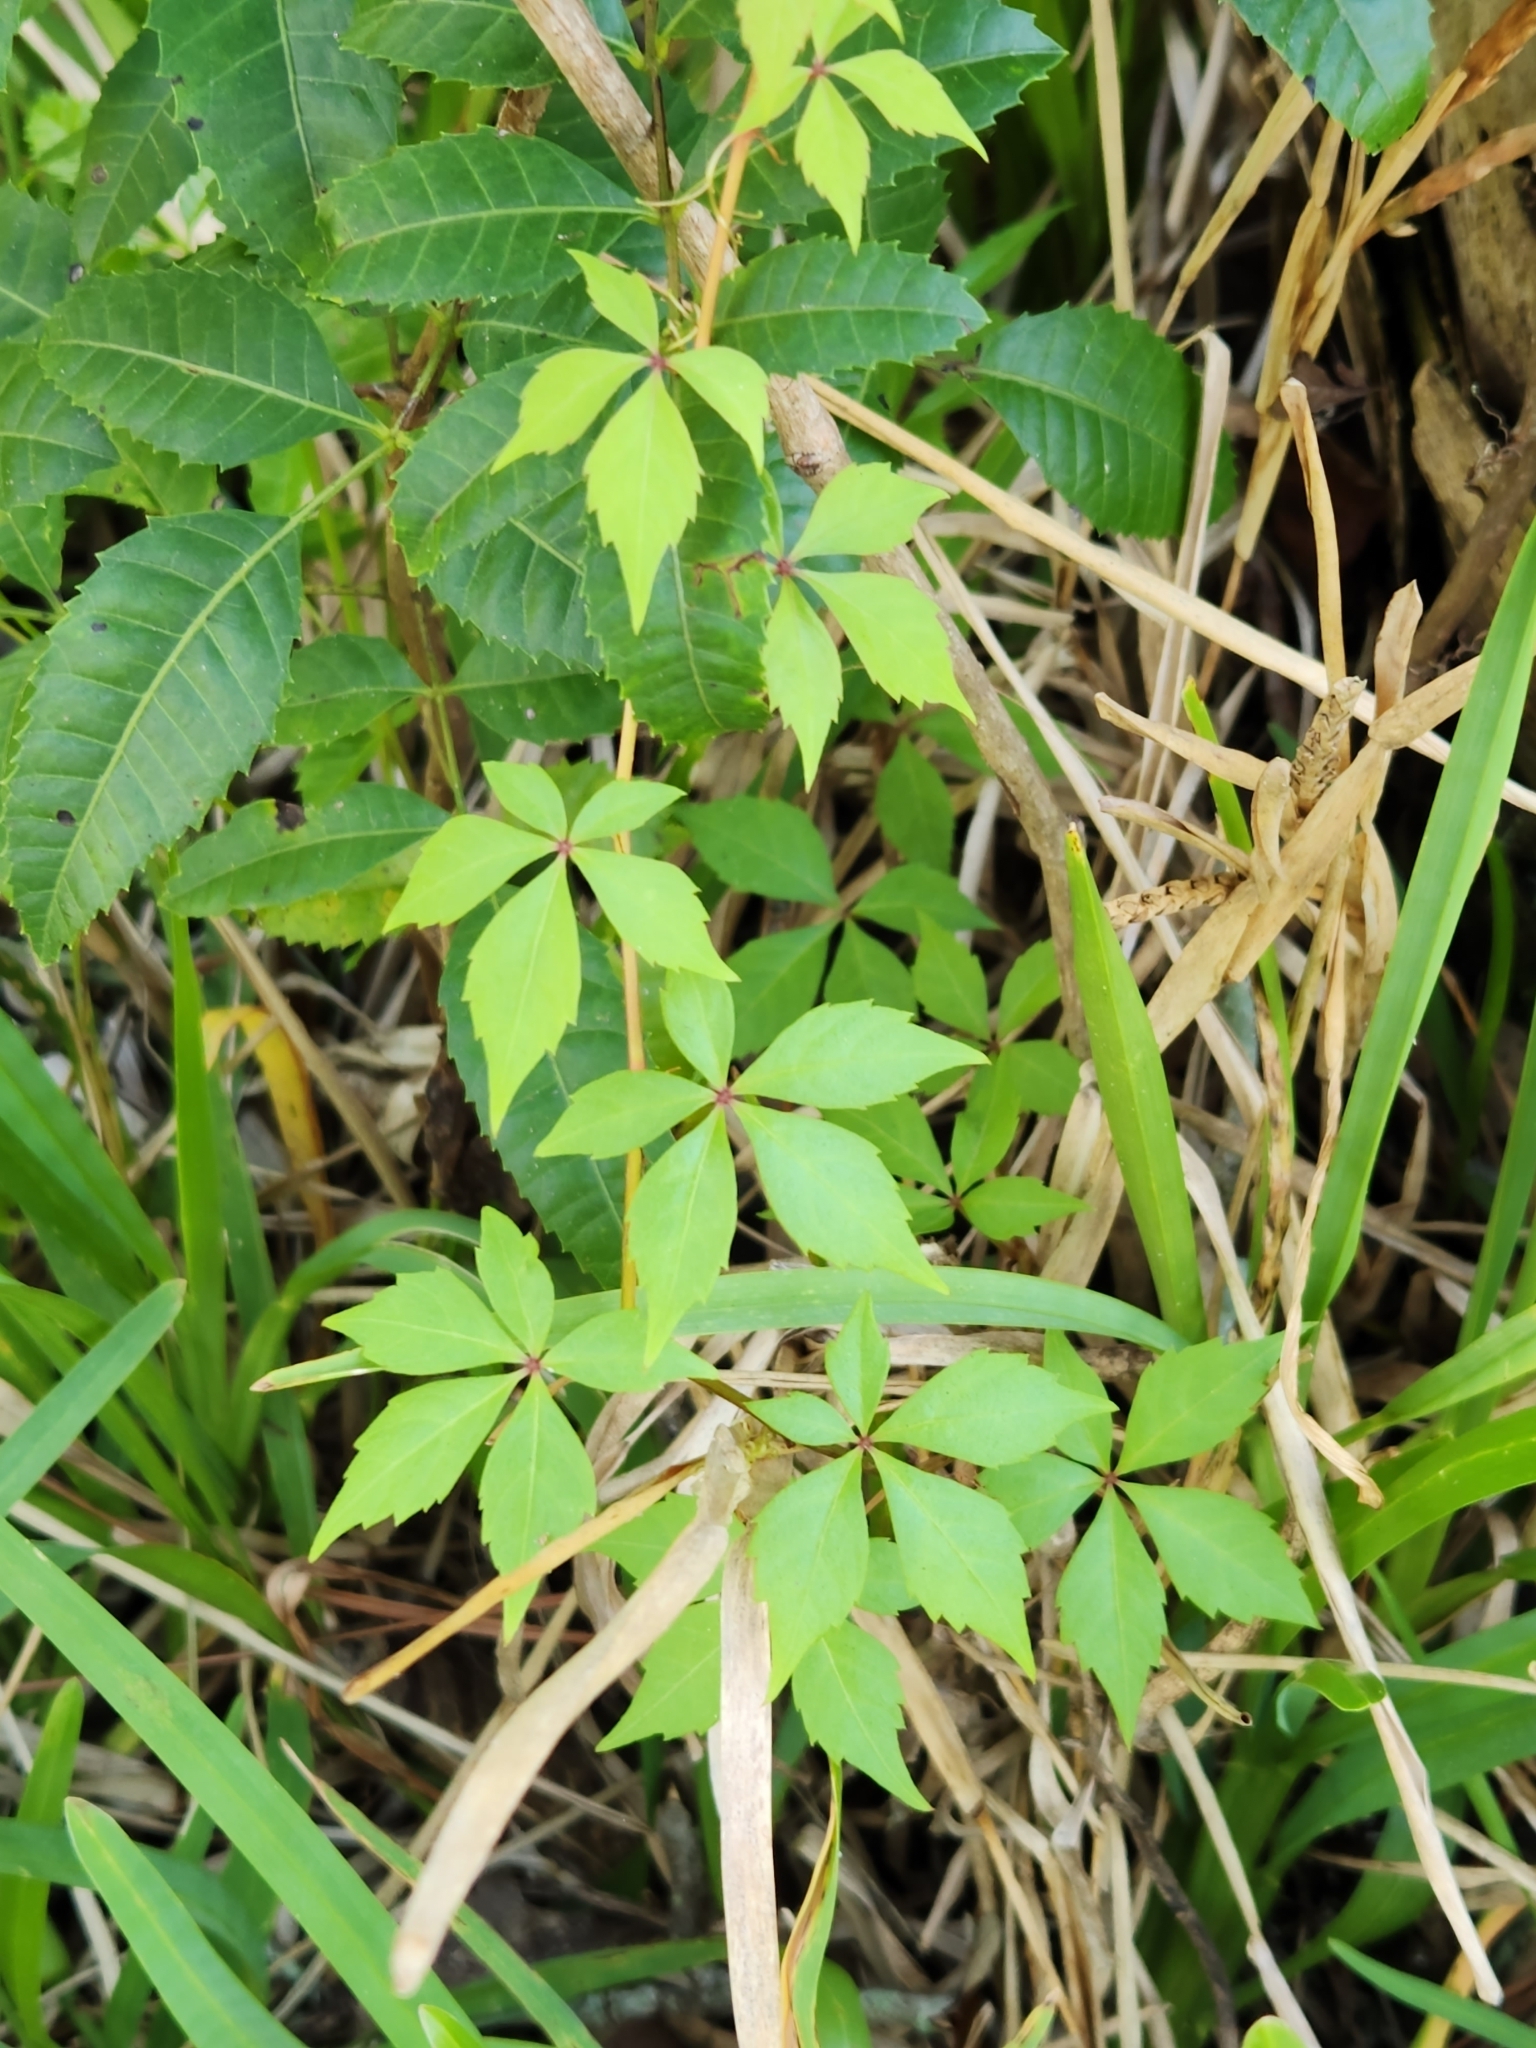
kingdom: Plantae
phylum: Tracheophyta
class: Magnoliopsida
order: Vitales
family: Vitaceae
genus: Parthenocissus
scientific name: Parthenocissus quinquefolia
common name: Virginia-creeper
